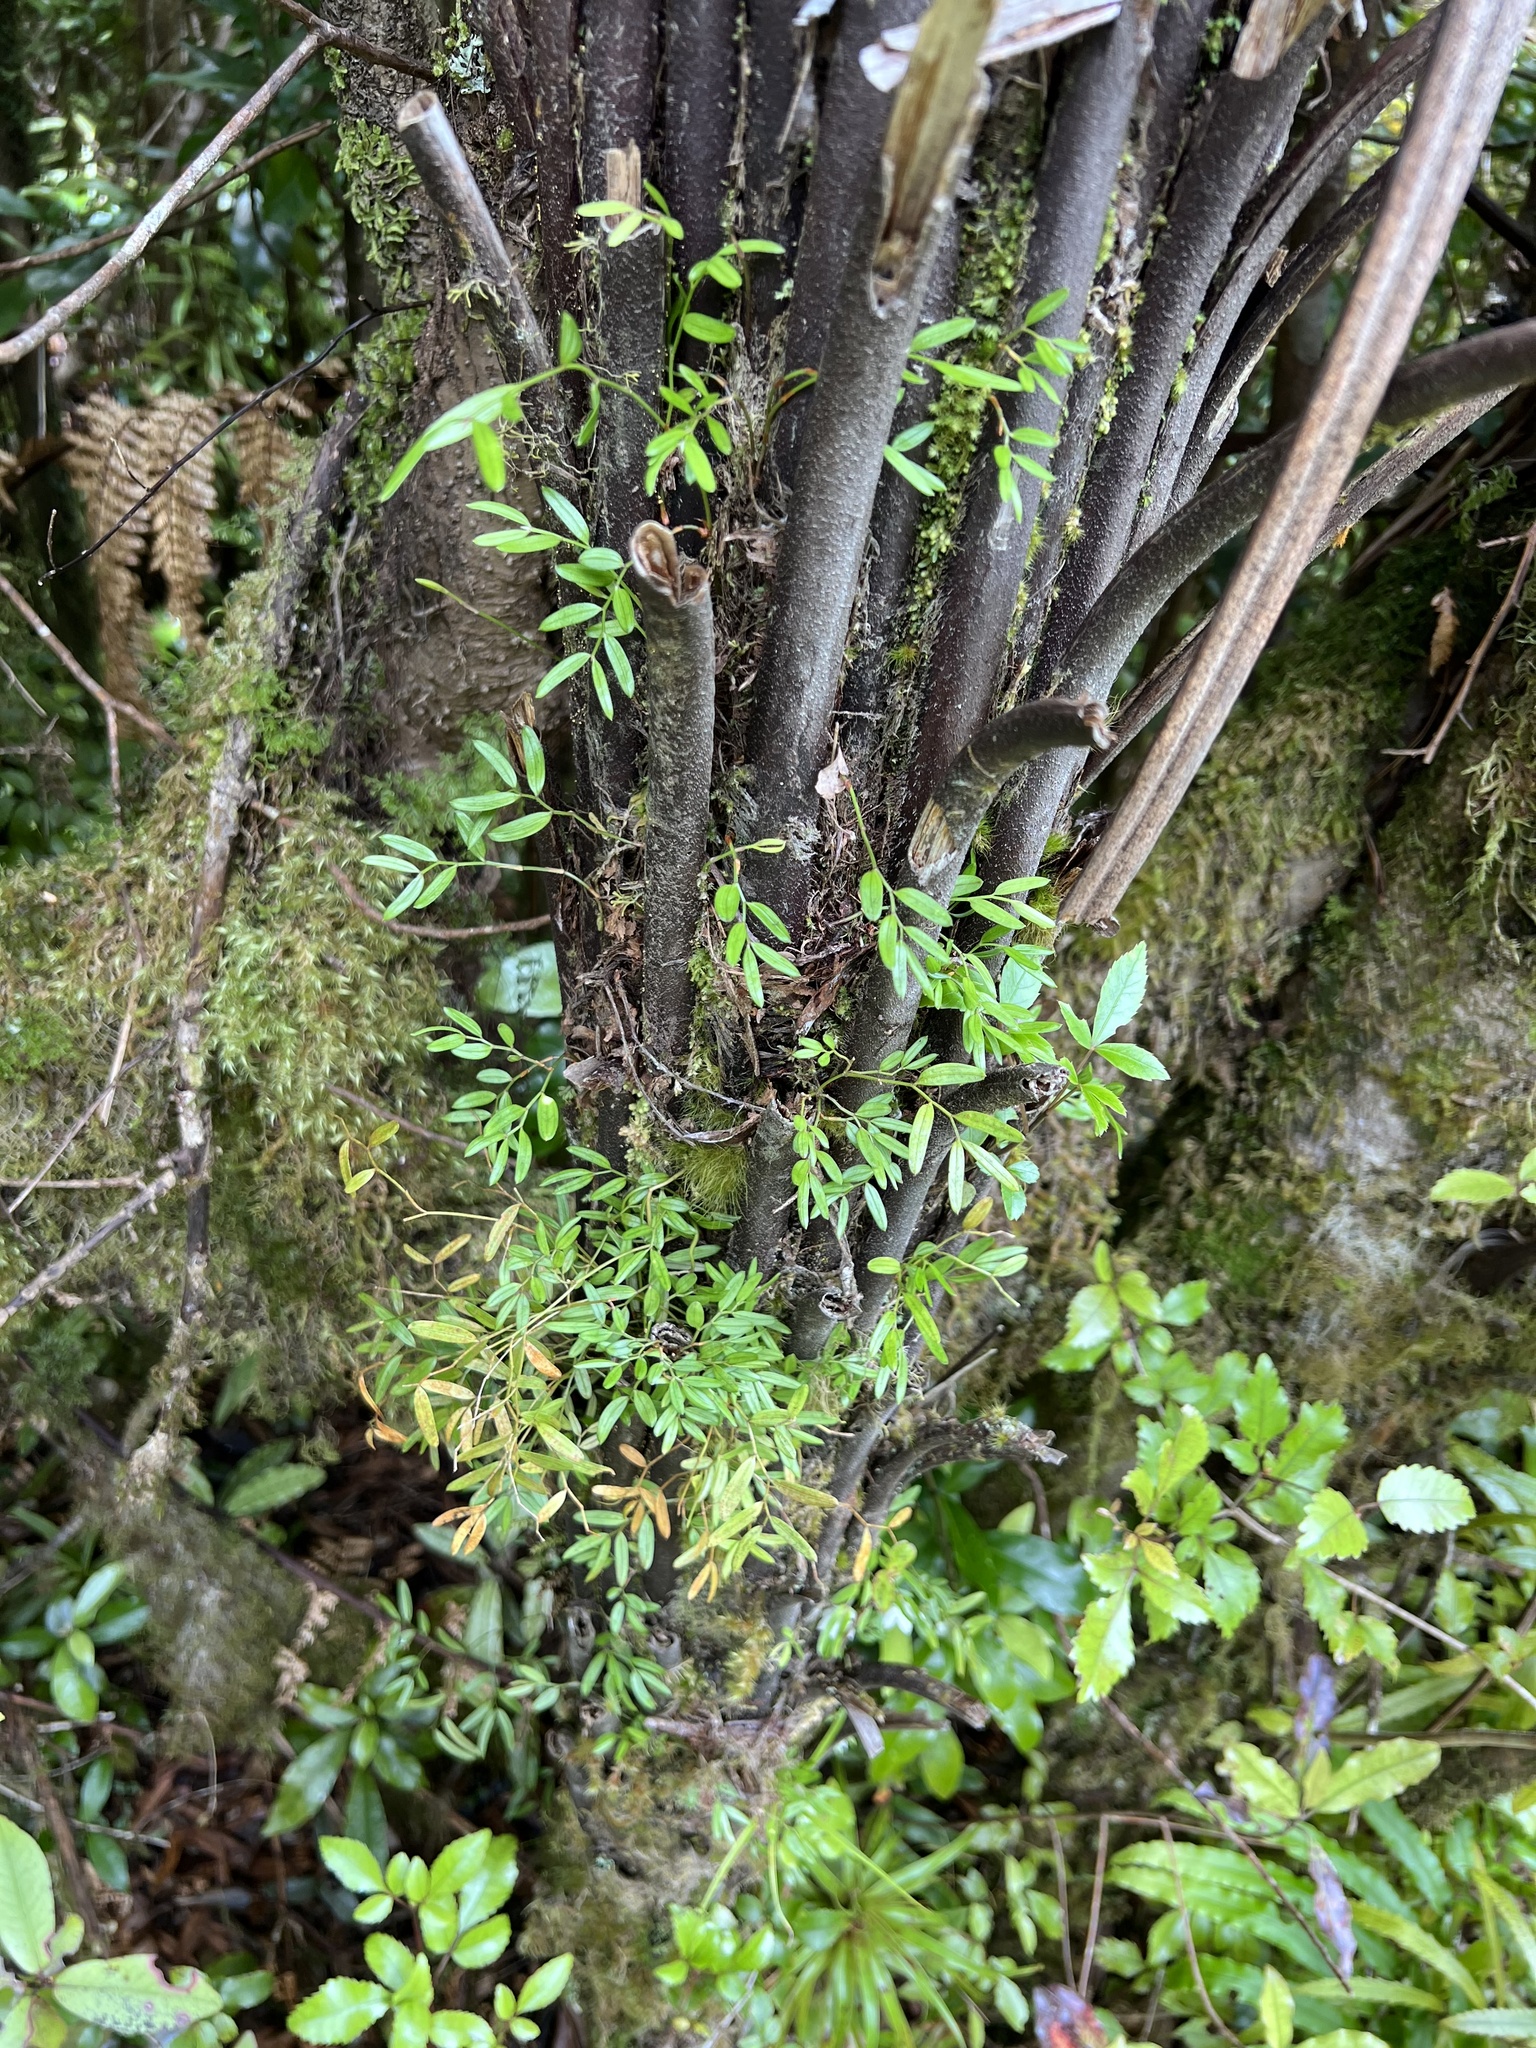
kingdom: Plantae
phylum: Tracheophyta
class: Liliopsida
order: Liliales
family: Alstroemeriaceae
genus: Luzuriaga
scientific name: Luzuriaga parviflora
